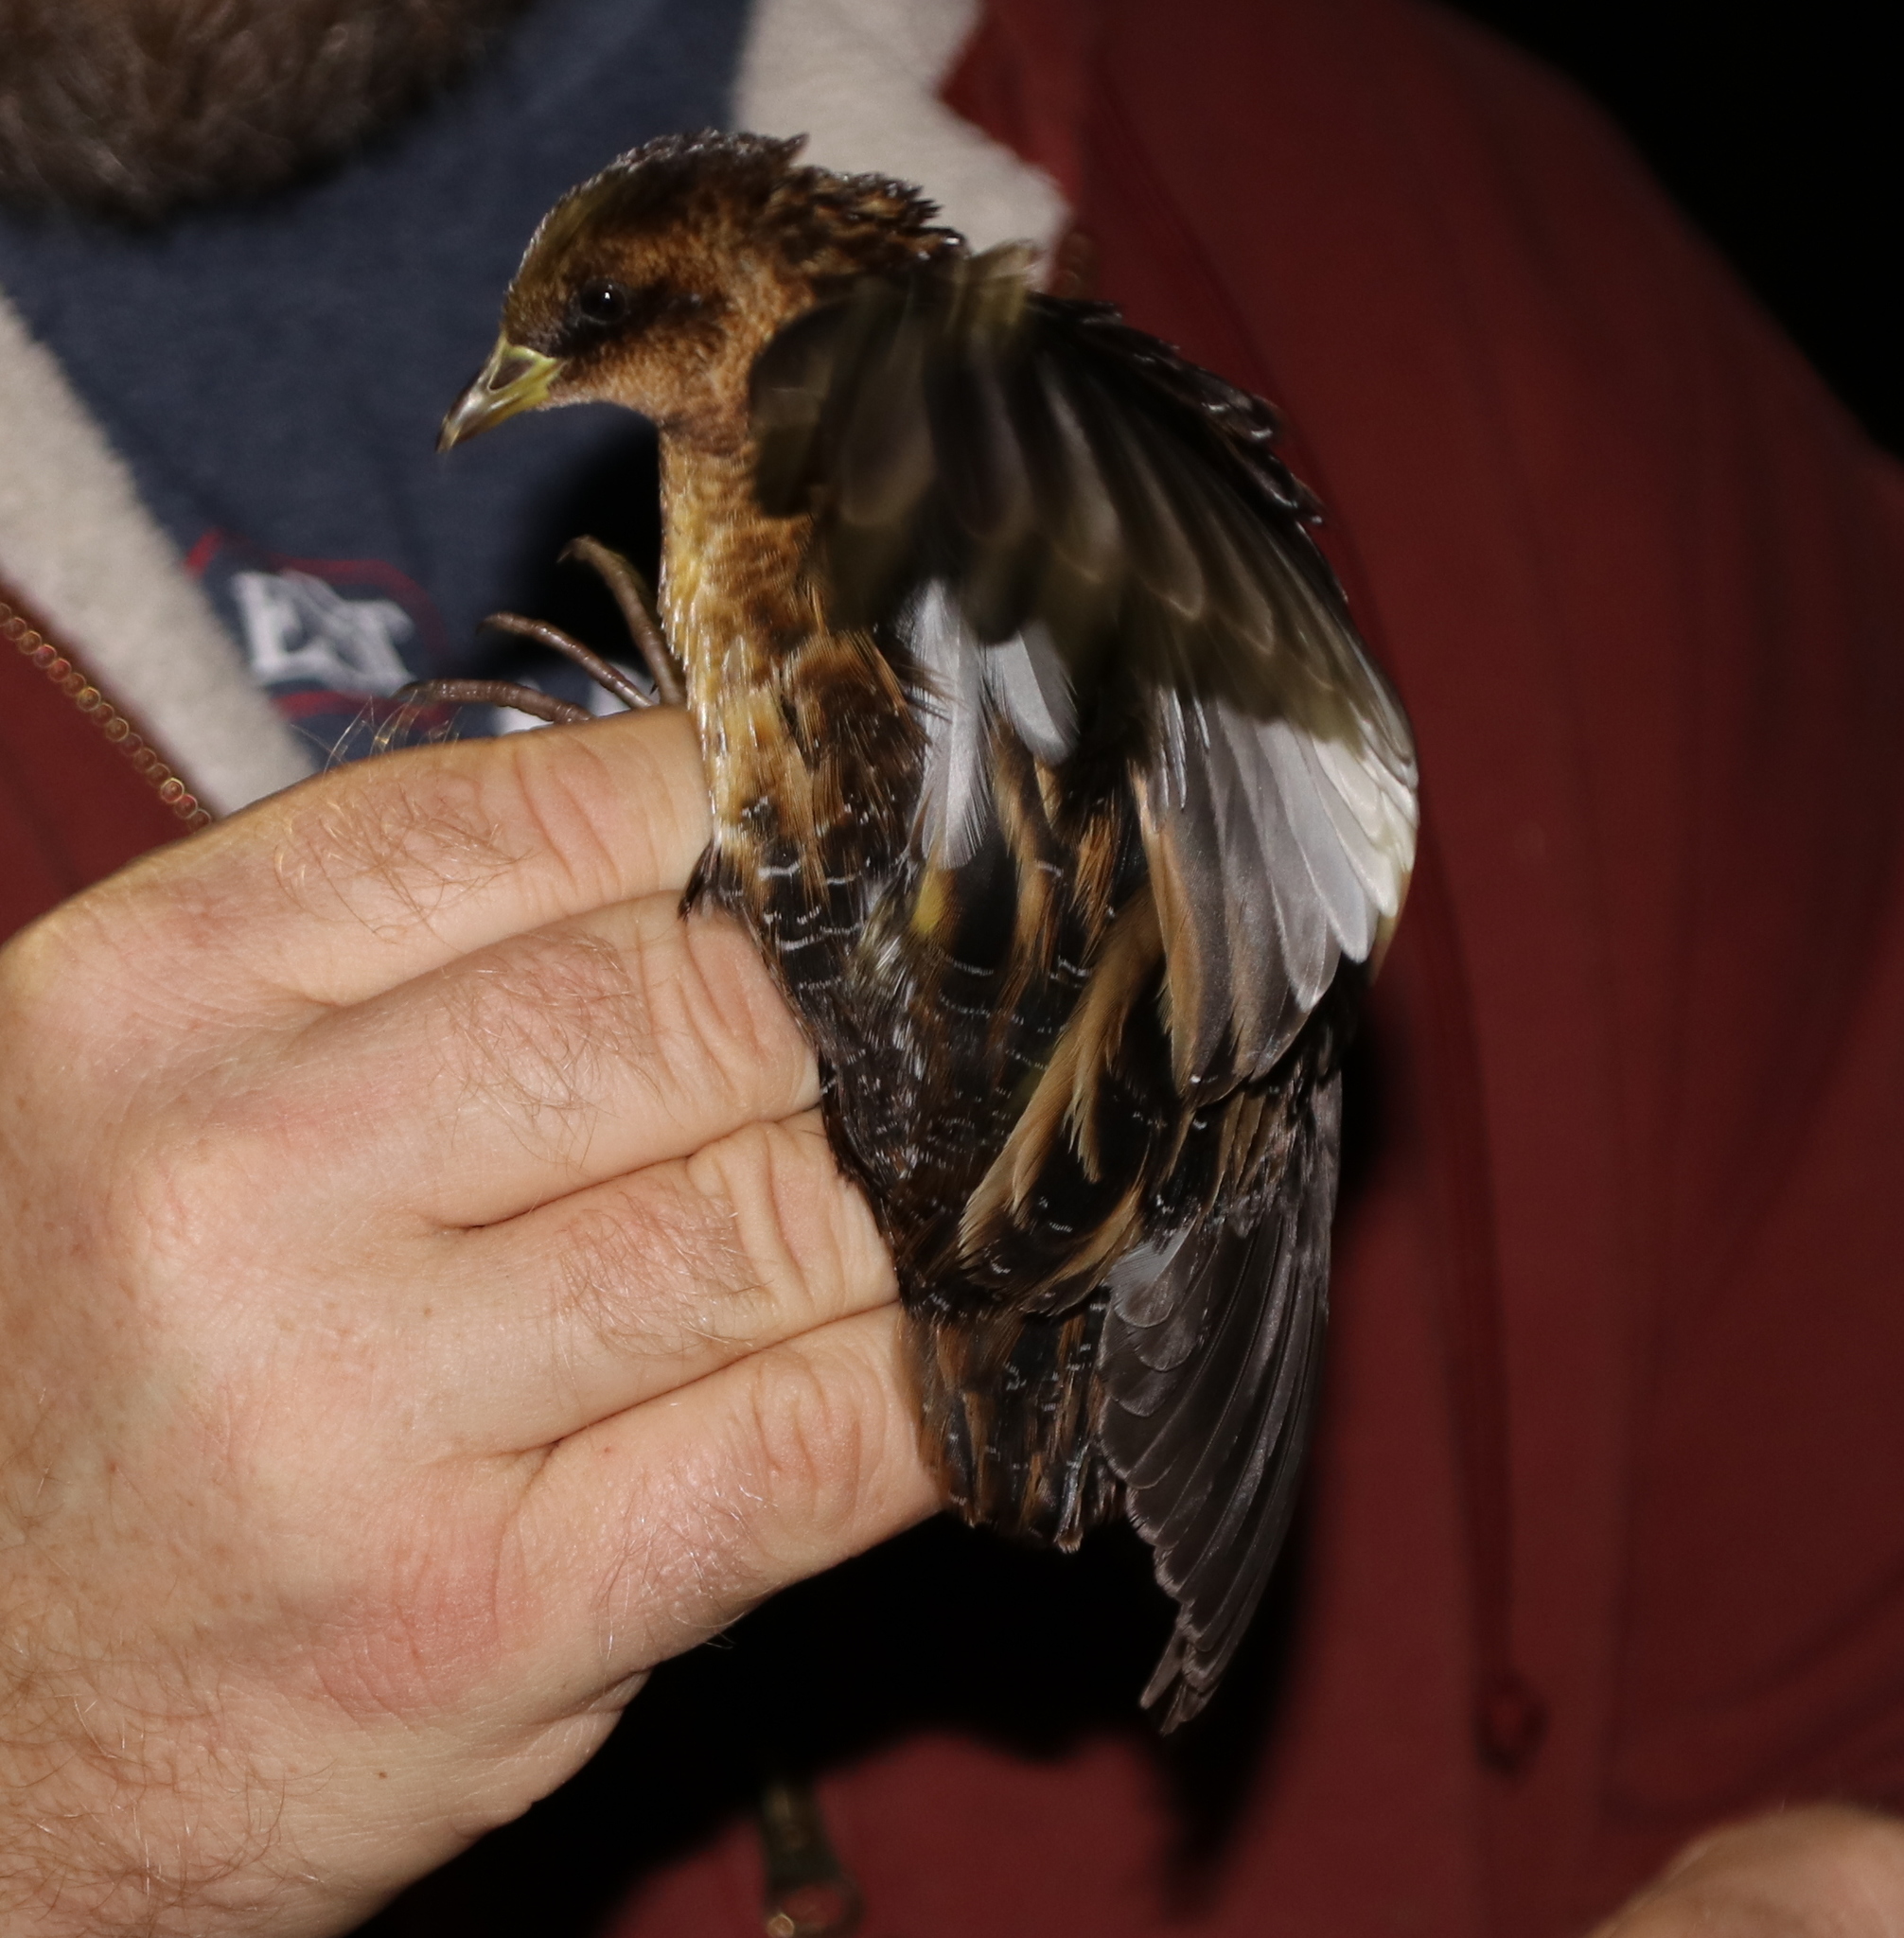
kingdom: Animalia
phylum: Chordata
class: Aves
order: Gruiformes
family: Rallidae
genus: Coturnicops
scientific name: Coturnicops noveboracensis
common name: Yellow rail
